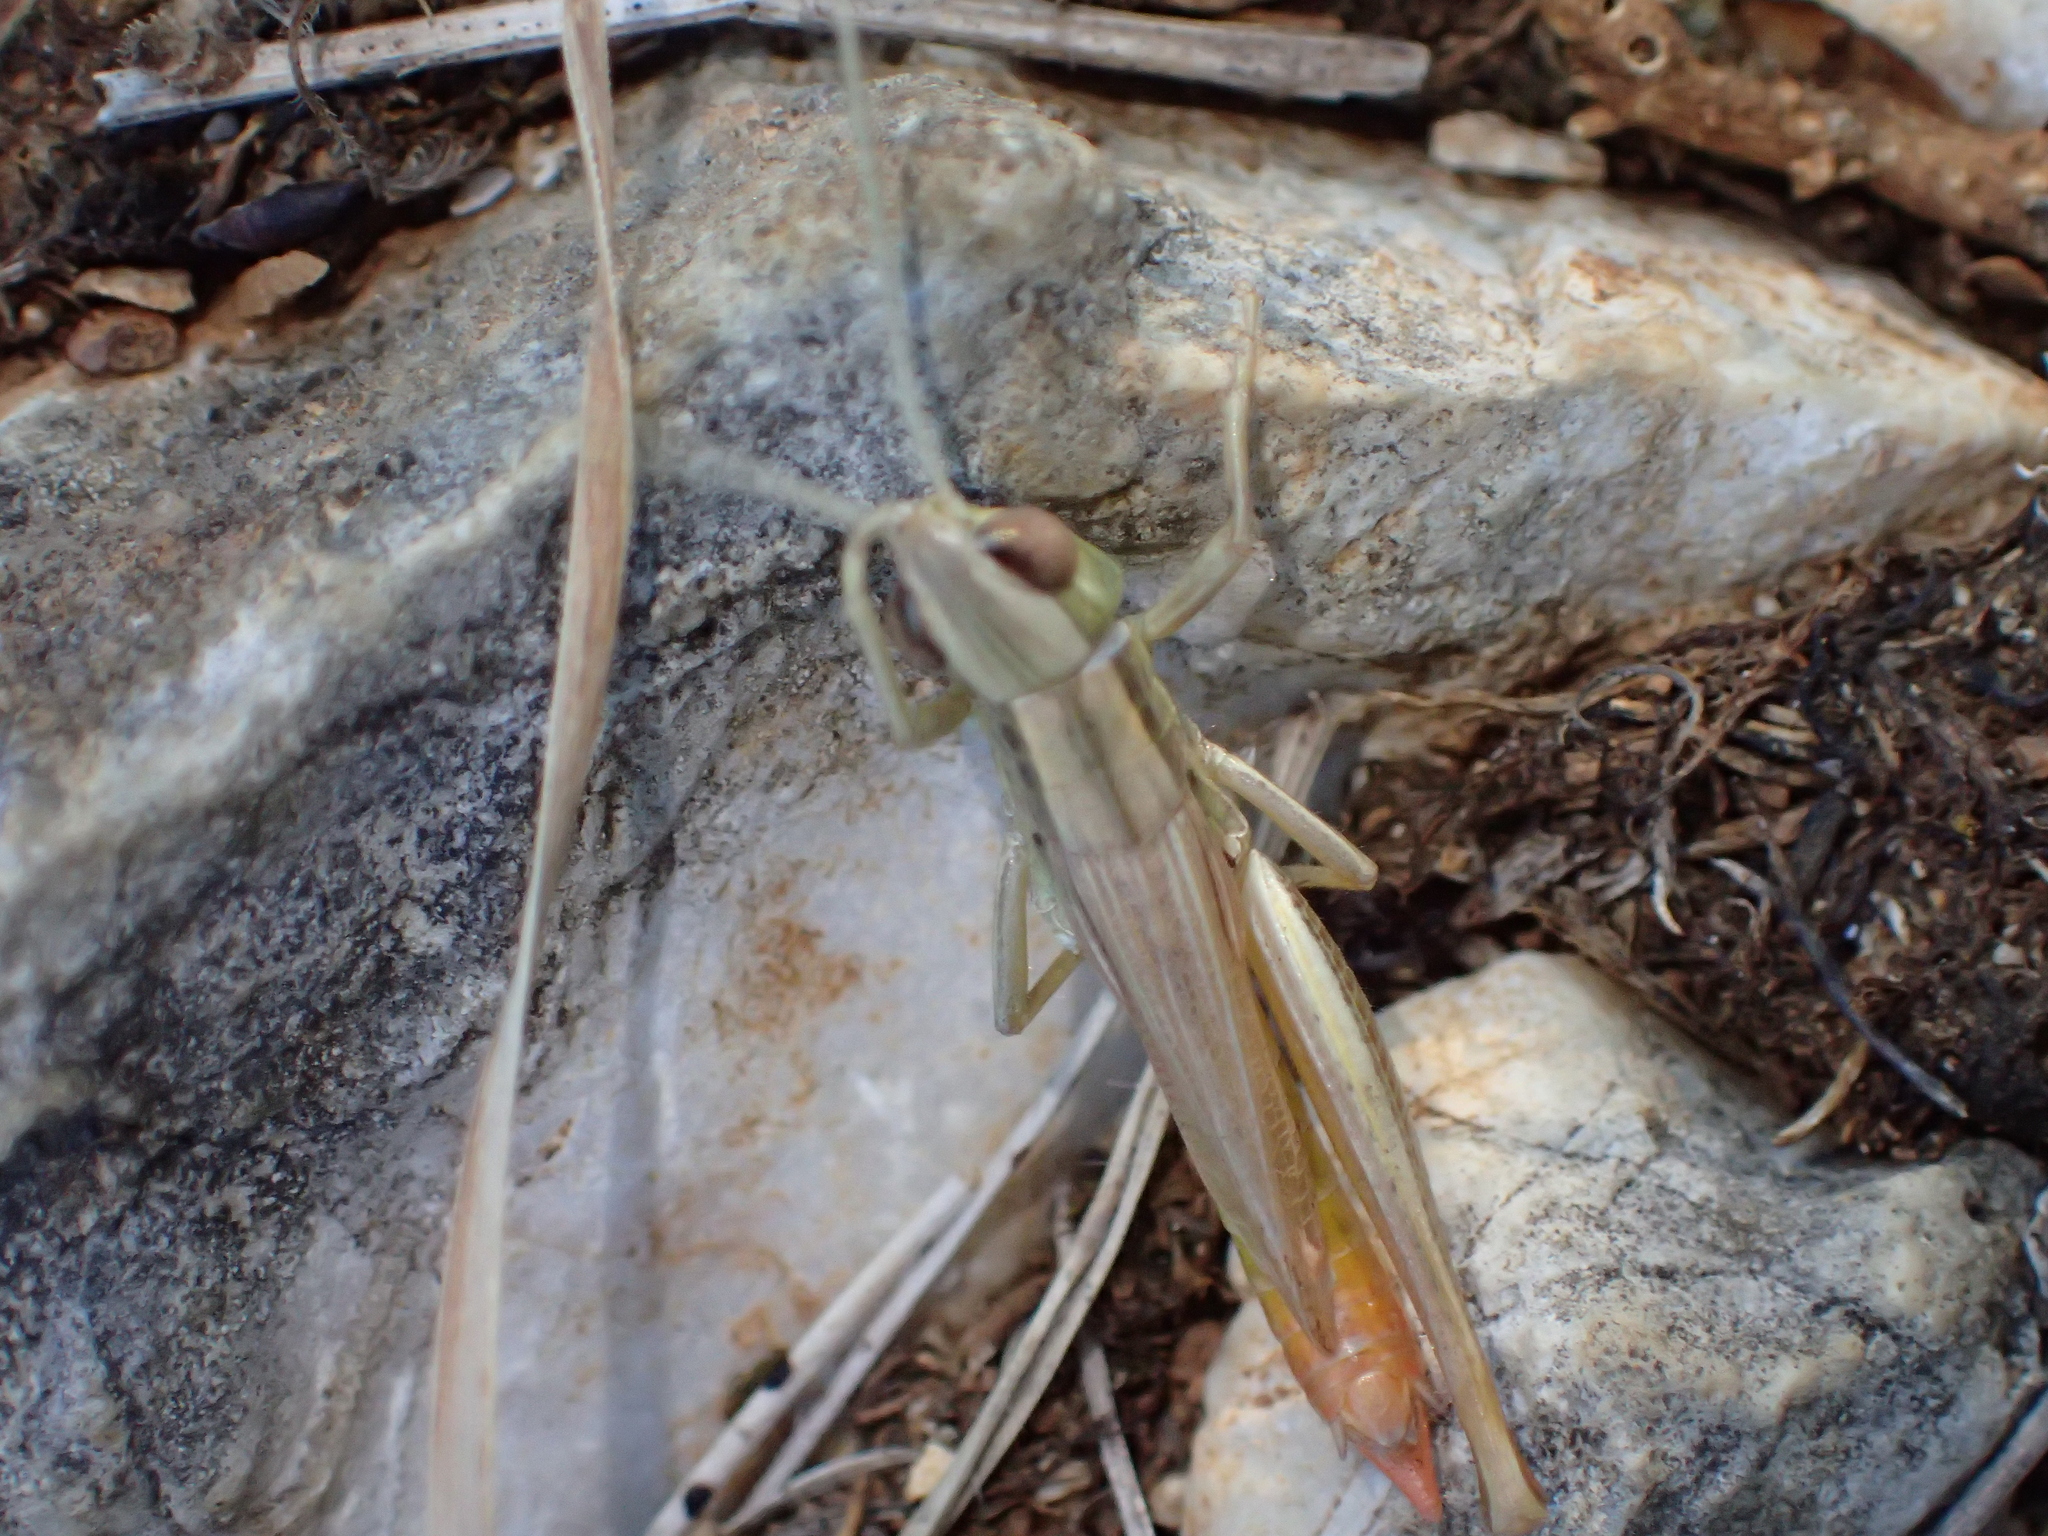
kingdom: Animalia
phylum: Arthropoda
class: Insecta
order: Orthoptera
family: Acrididae
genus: Euchorthippus
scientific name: Euchorthippus declivus
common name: Common straw grasshopper
